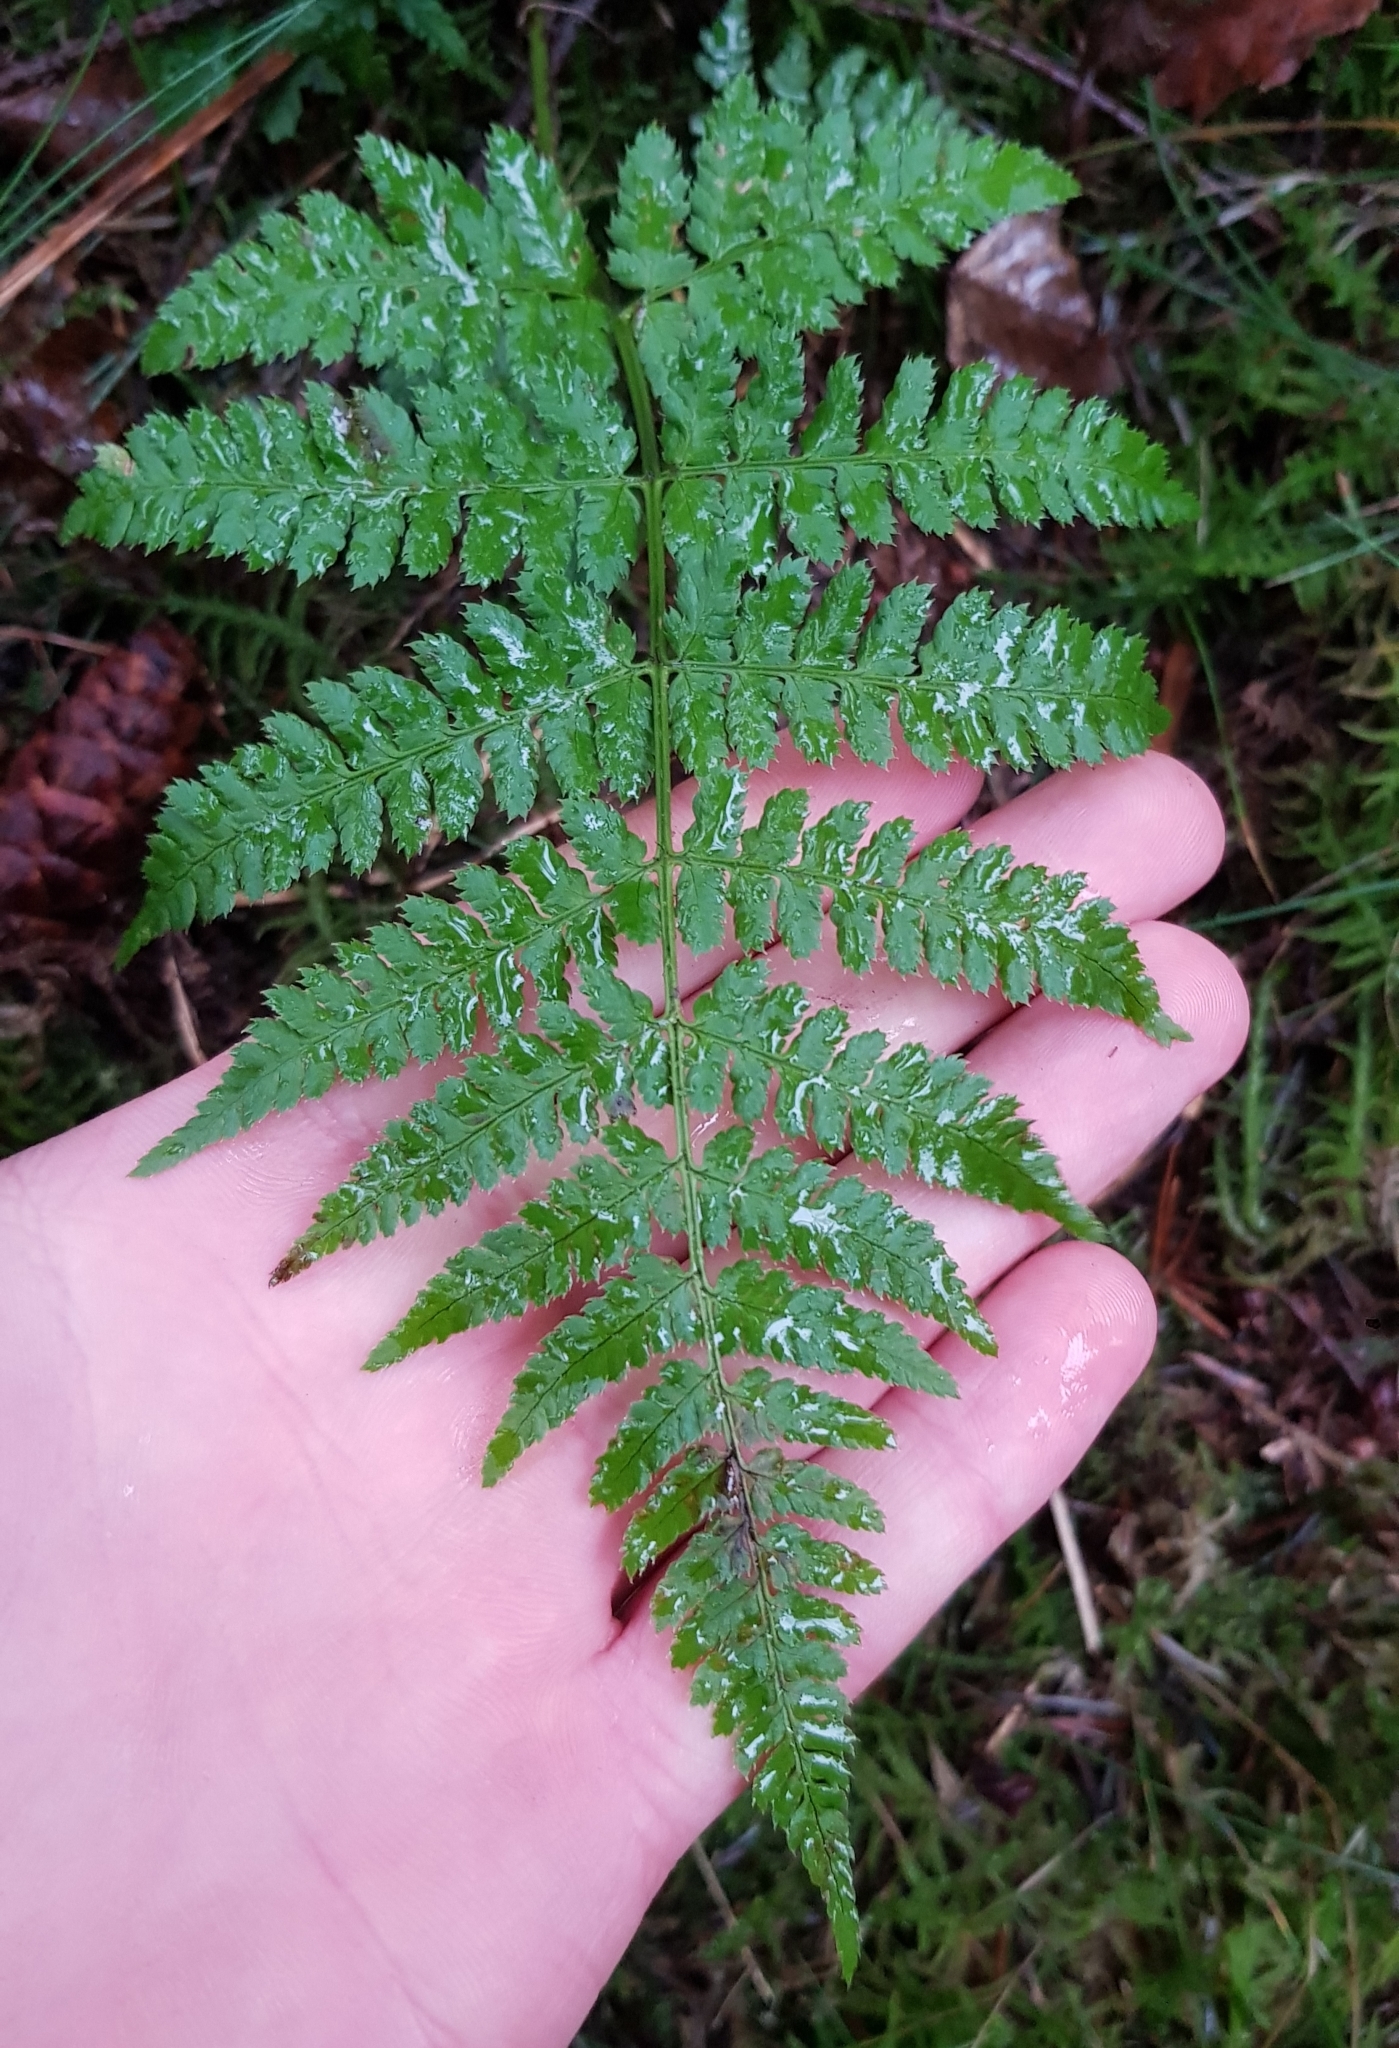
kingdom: Plantae
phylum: Tracheophyta
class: Polypodiopsida
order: Polypodiales
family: Dryopteridaceae
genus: Dryopteris
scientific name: Dryopteris carthusiana
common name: Narrow buckler-fern
